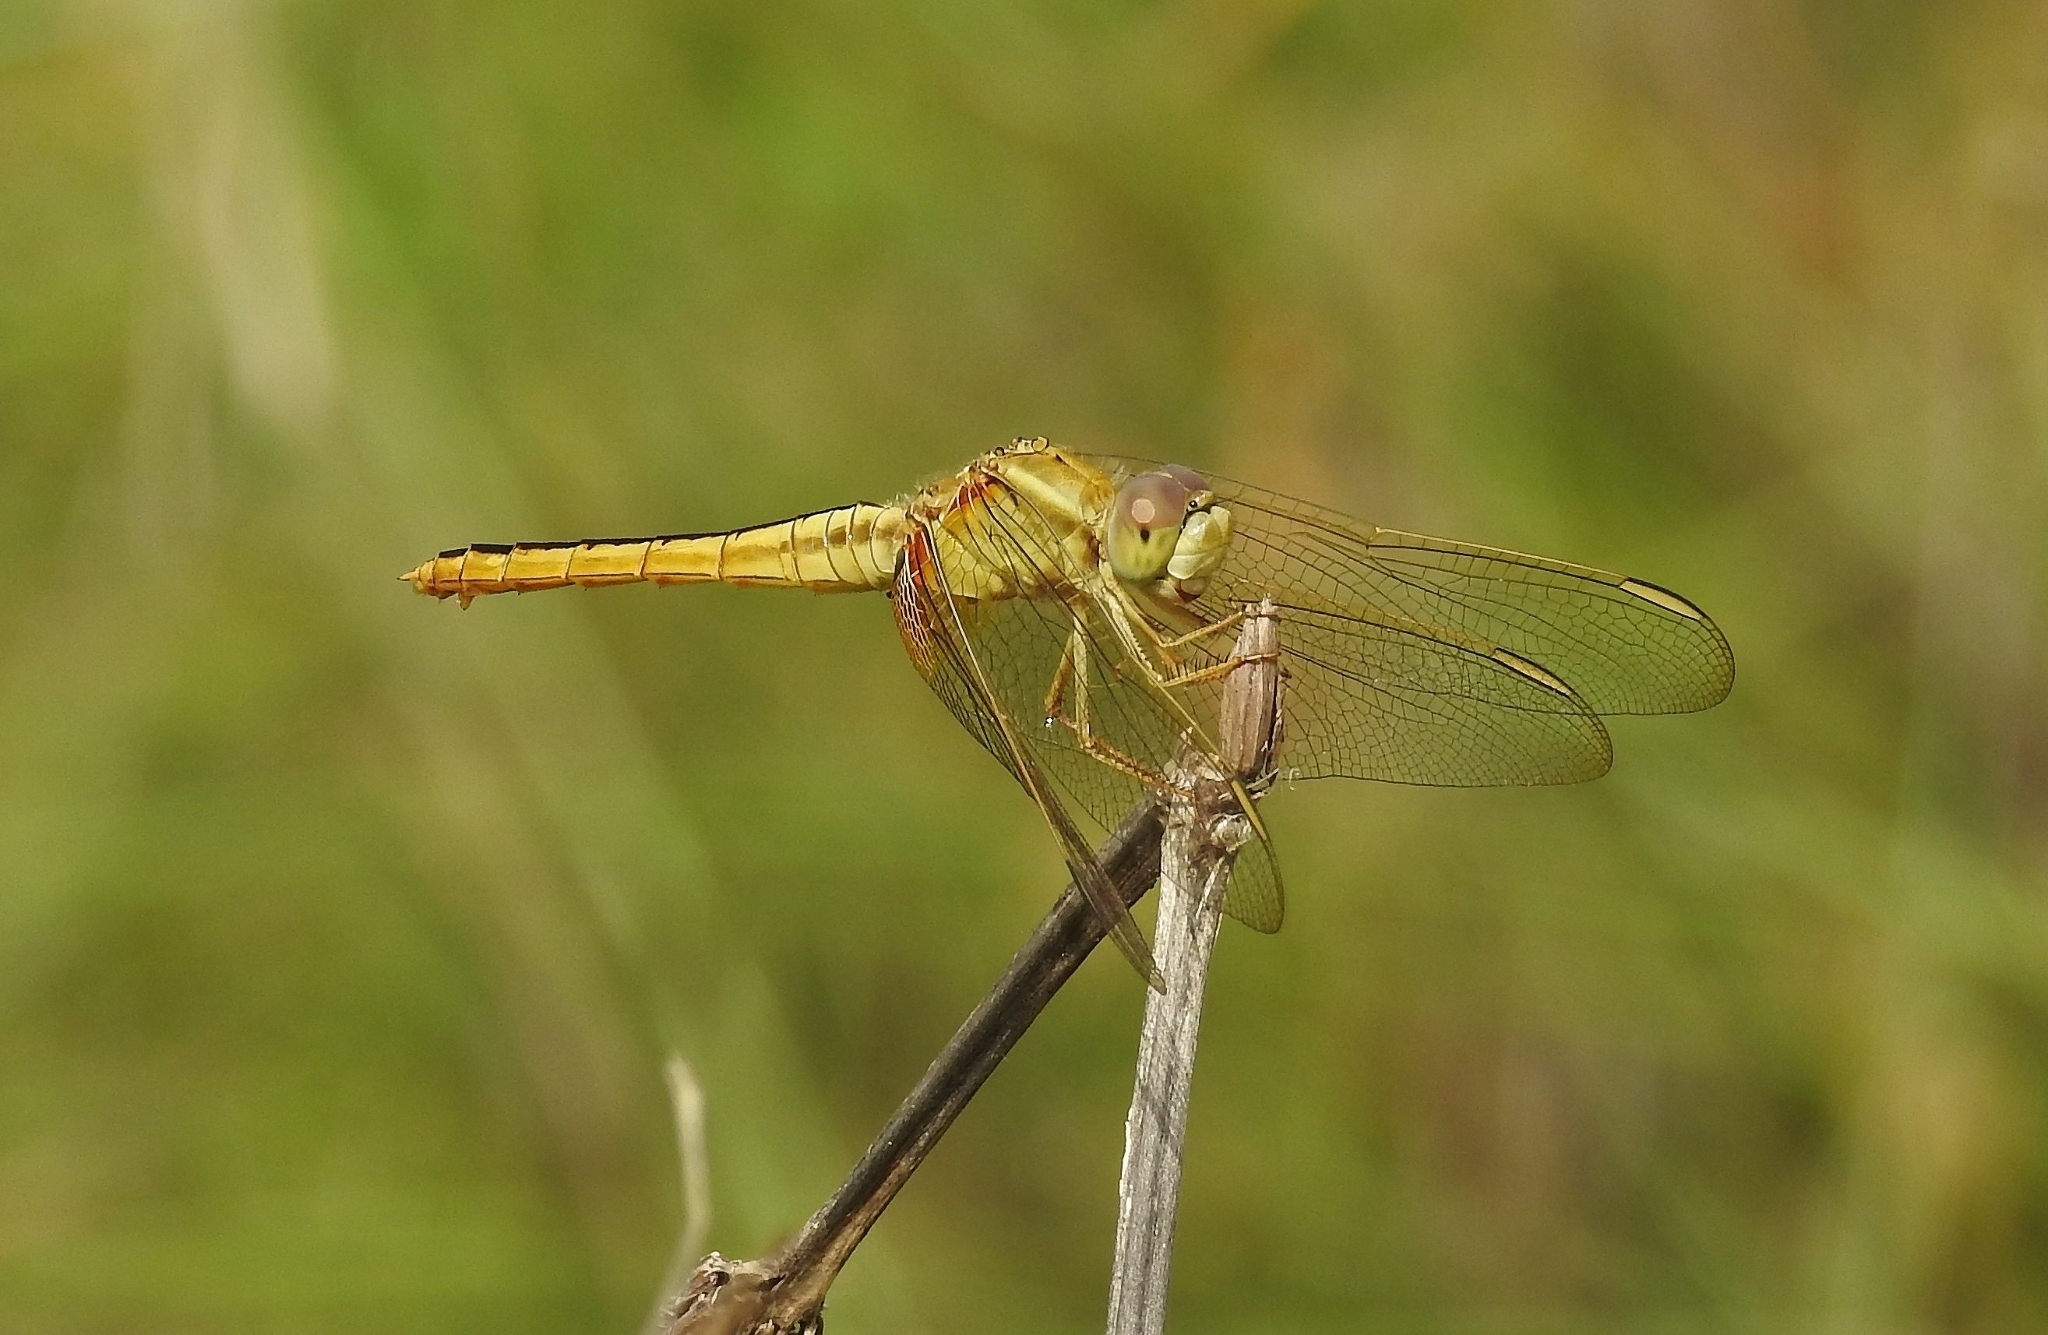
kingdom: Animalia
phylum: Arthropoda
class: Insecta
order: Odonata
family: Libellulidae
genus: Crocothemis
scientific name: Crocothemis servilia
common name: Scarlet skimmer
